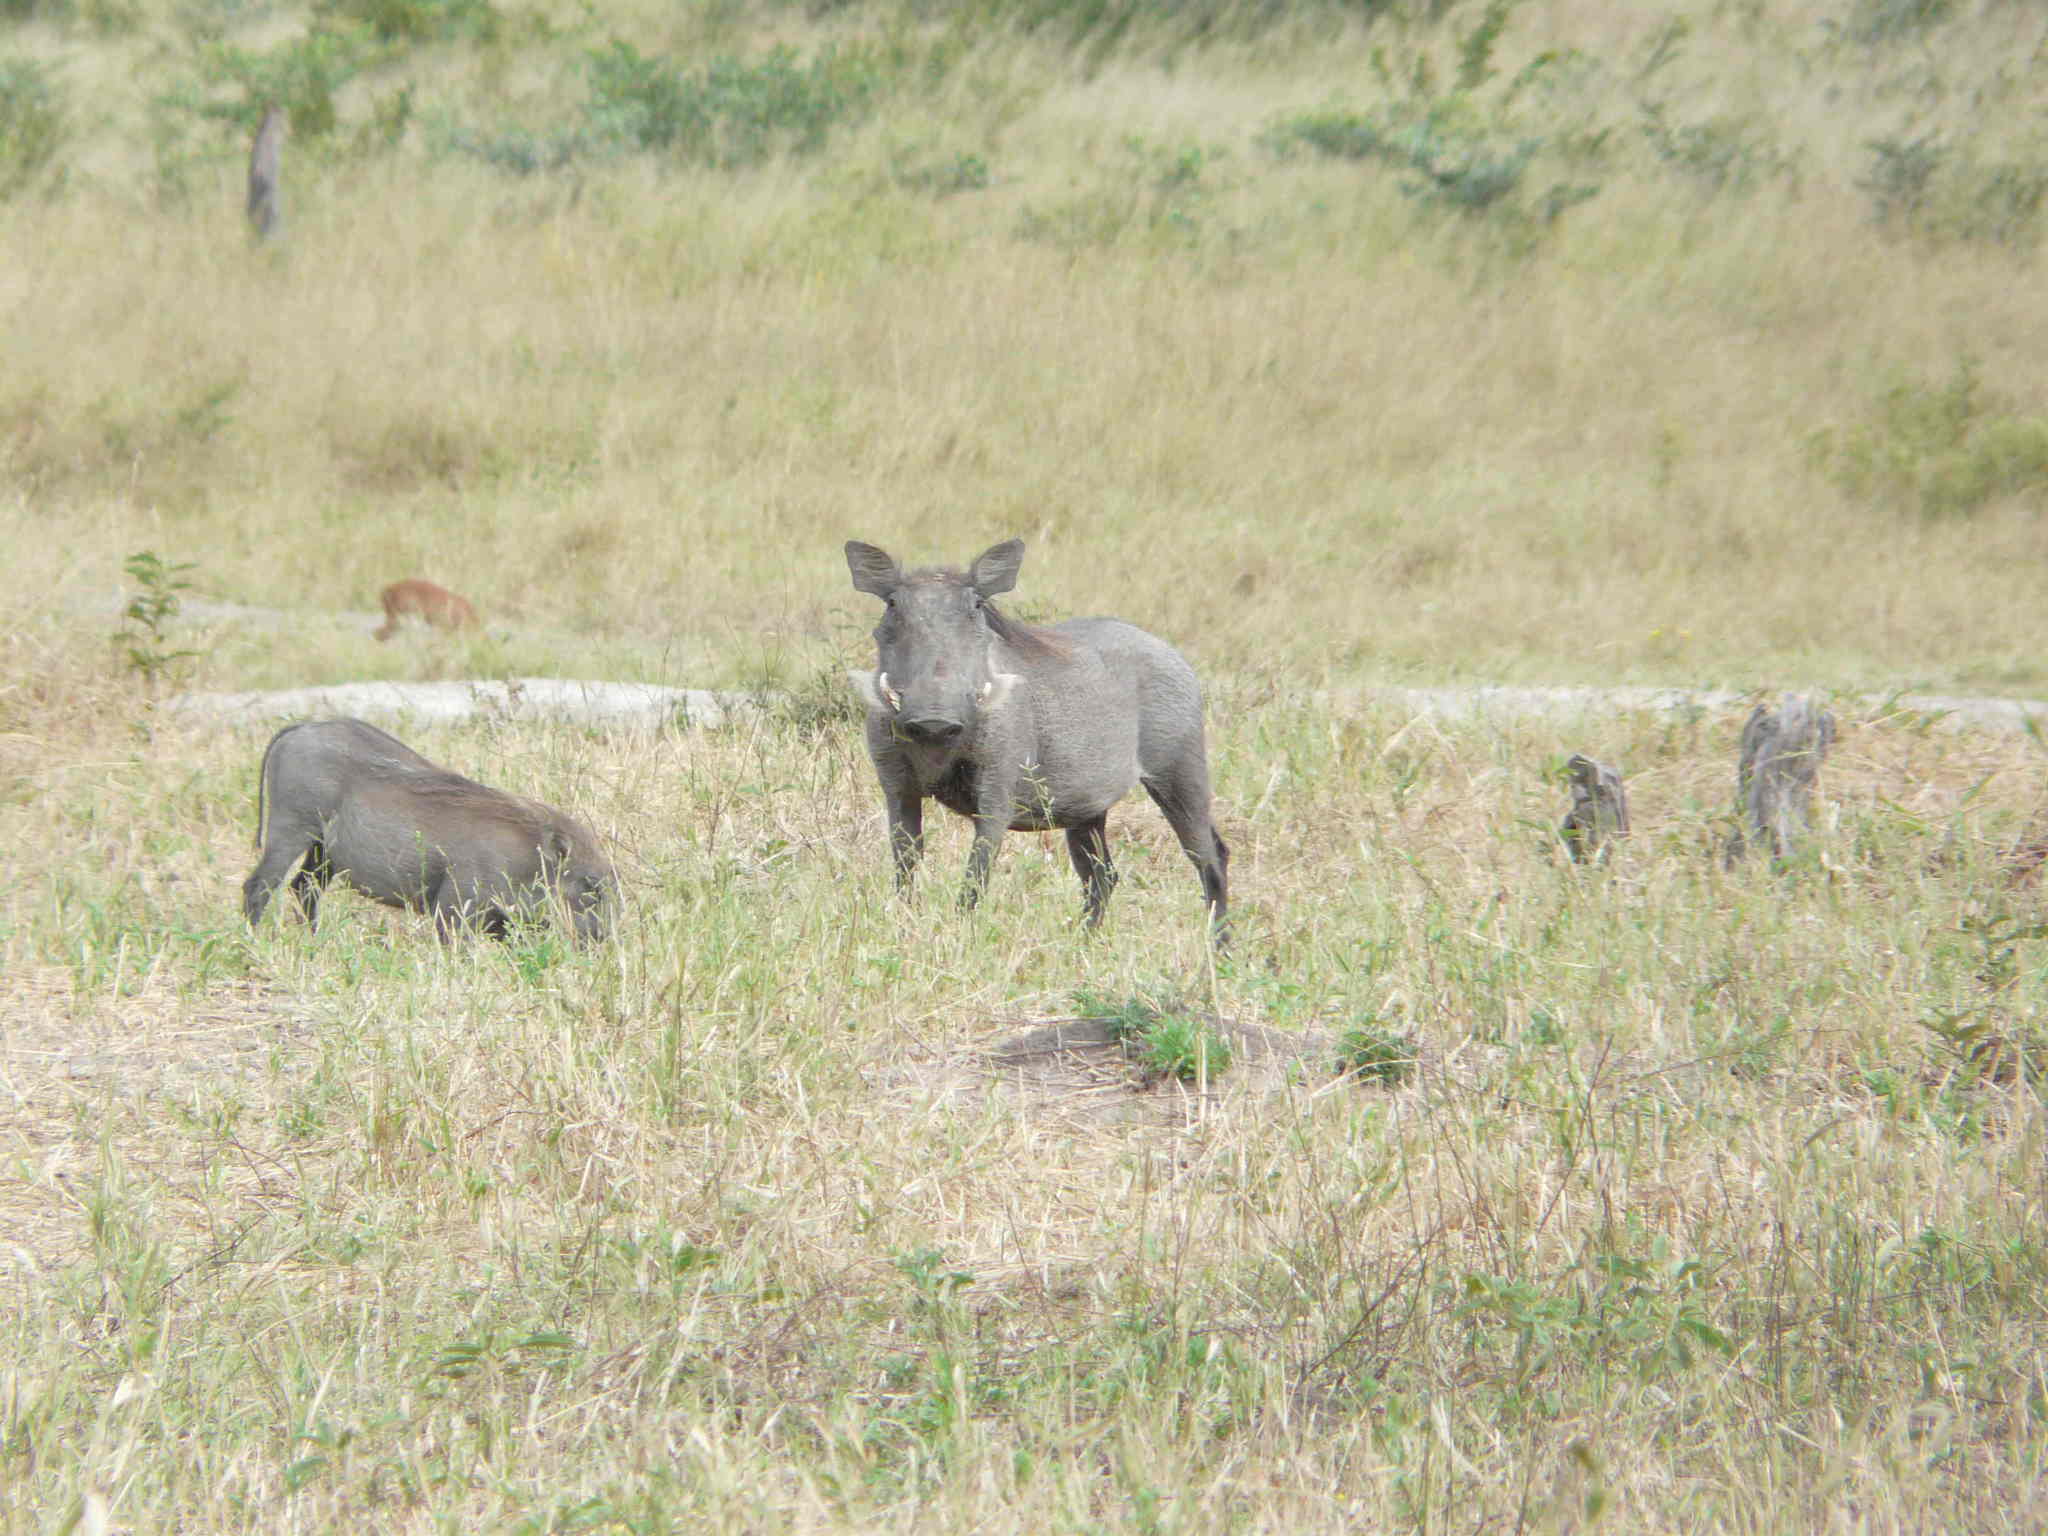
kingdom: Animalia
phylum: Chordata
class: Mammalia
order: Artiodactyla
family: Suidae
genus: Phacochoerus
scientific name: Phacochoerus africanus
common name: Common warthog
